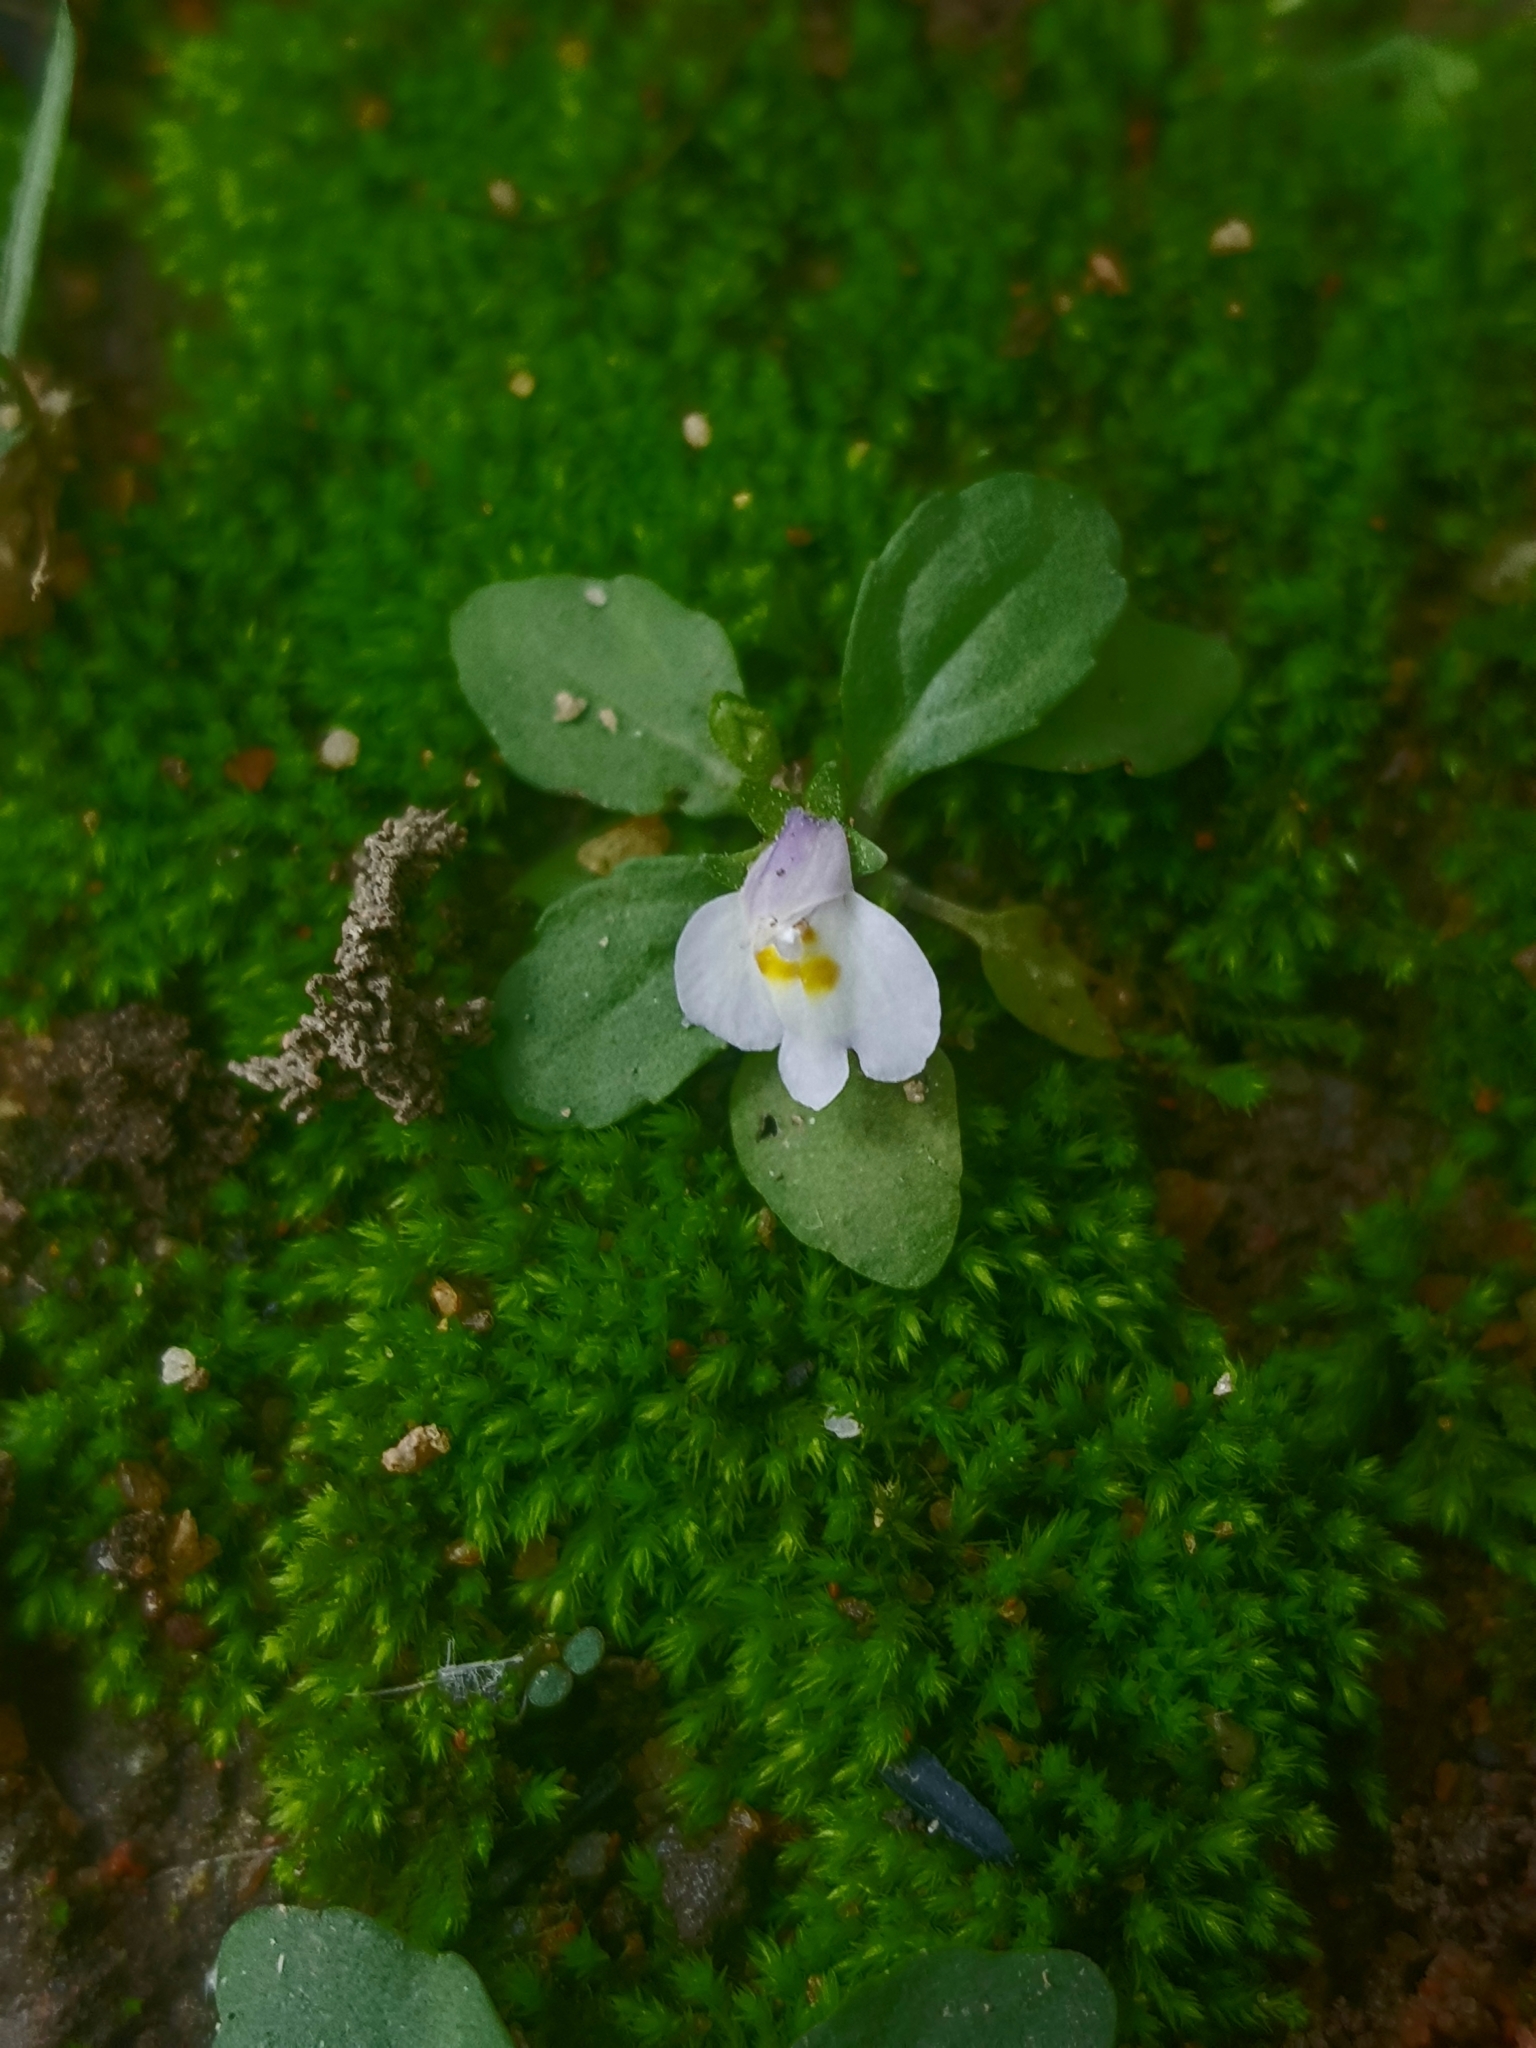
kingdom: Plantae
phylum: Tracheophyta
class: Magnoliopsida
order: Lamiales
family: Mazaceae
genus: Mazus
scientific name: Mazus pumilus
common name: Japanese mazus
